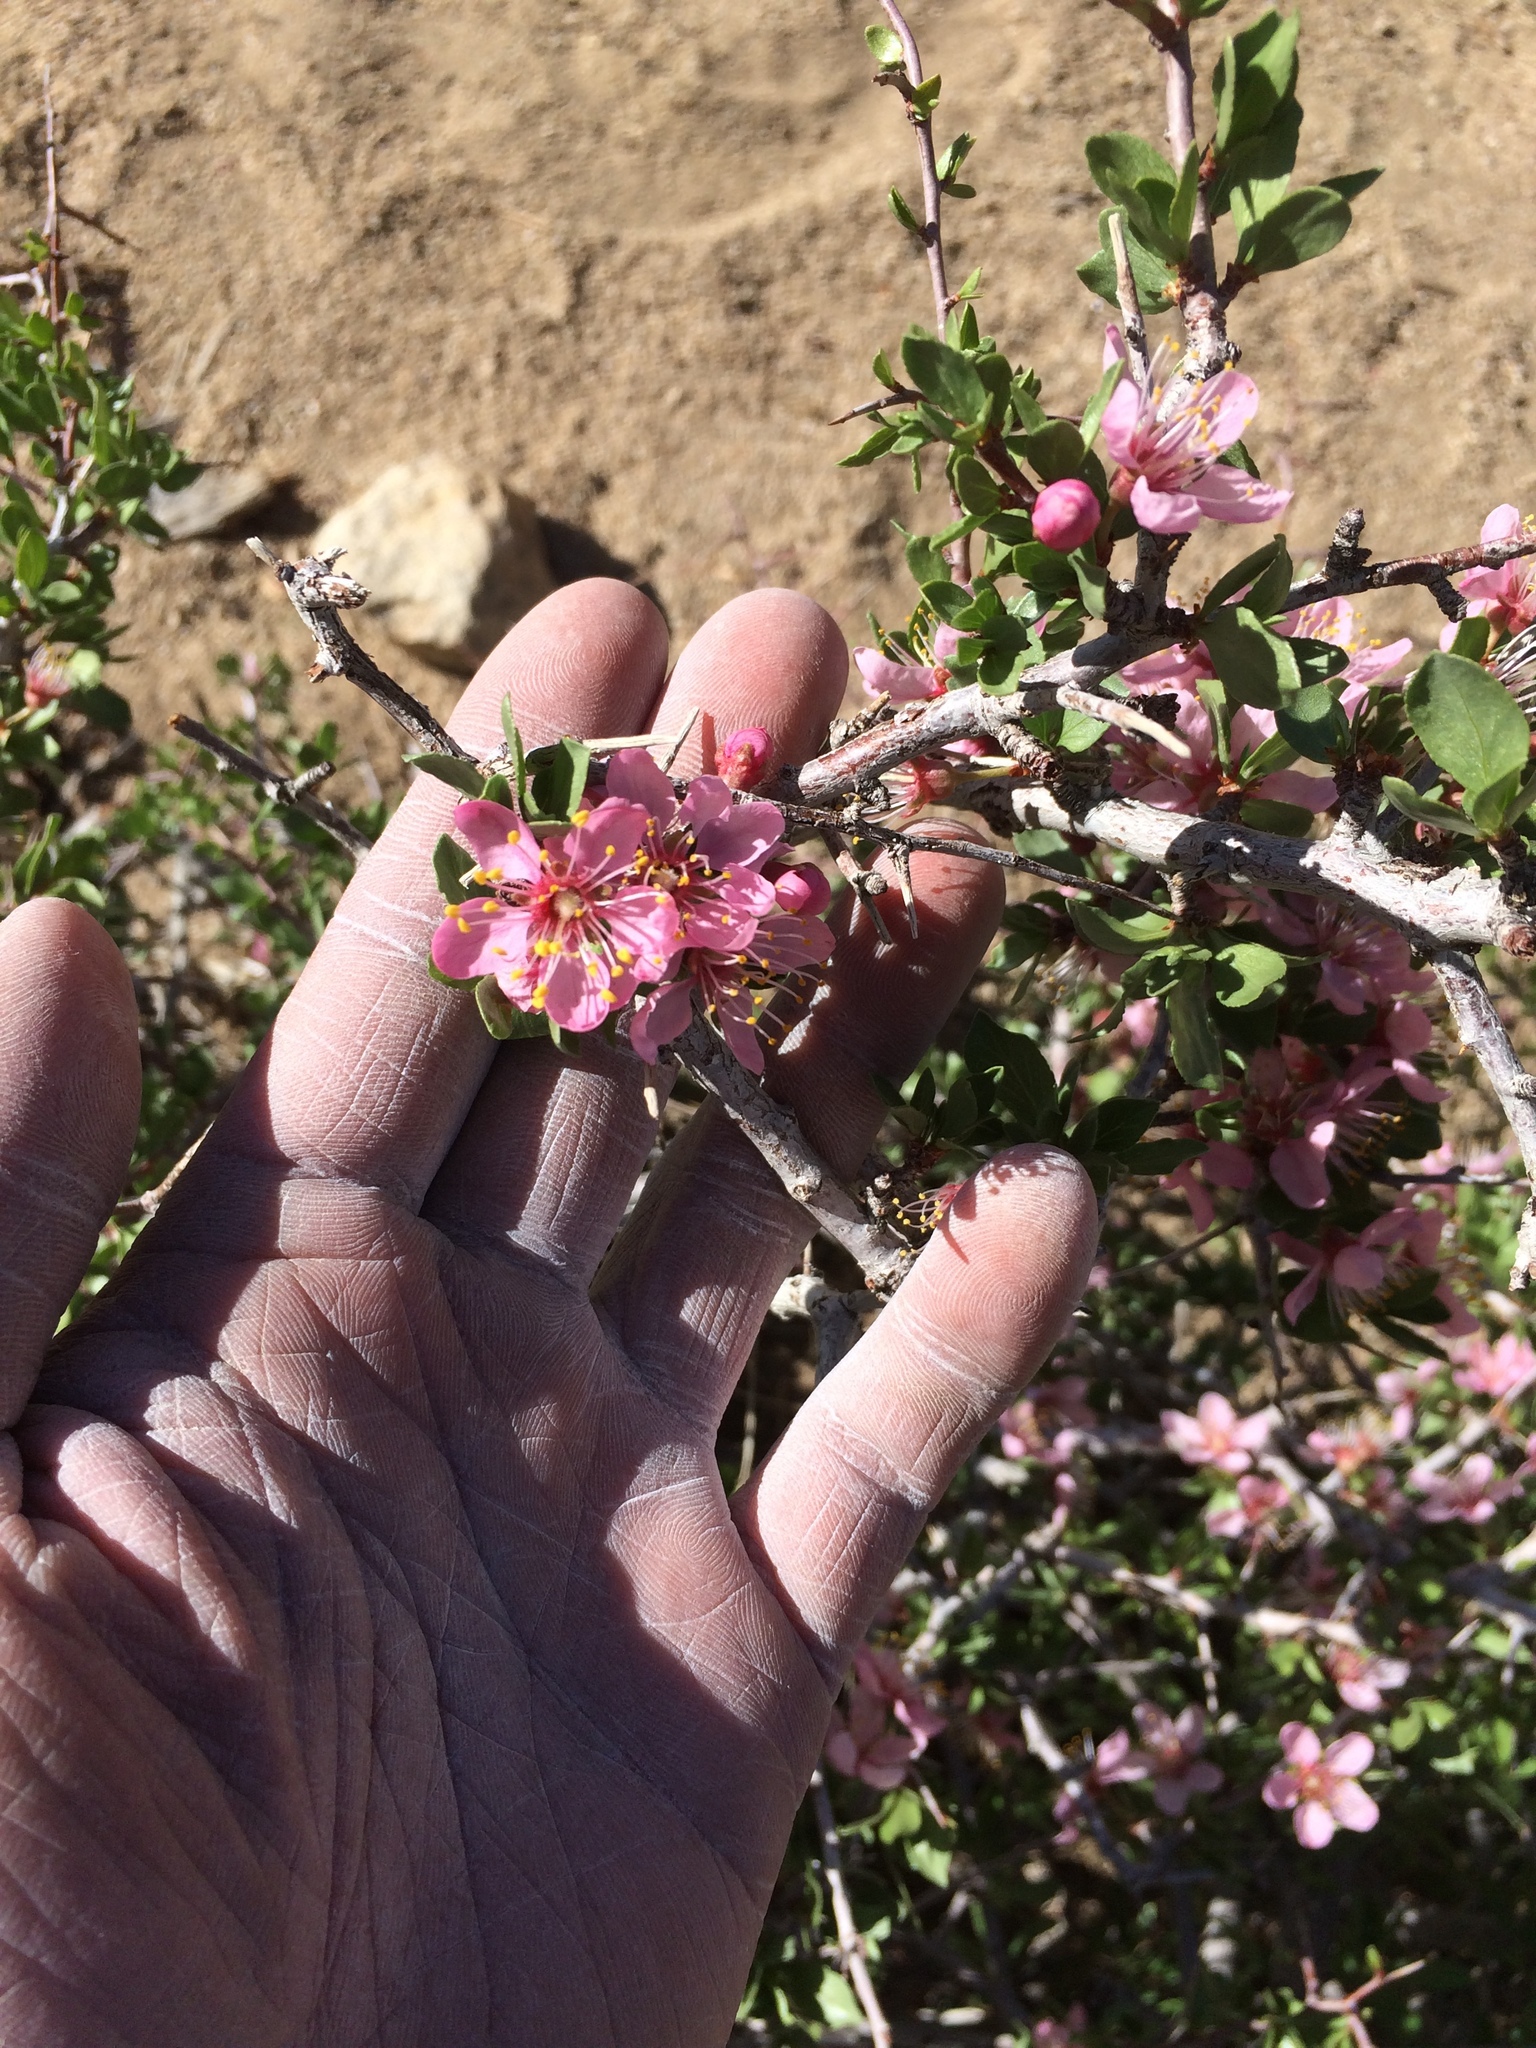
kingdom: Plantae
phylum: Tracheophyta
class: Magnoliopsida
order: Rosales
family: Rosaceae
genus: Prunus
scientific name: Prunus andersonii
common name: Desert peach
